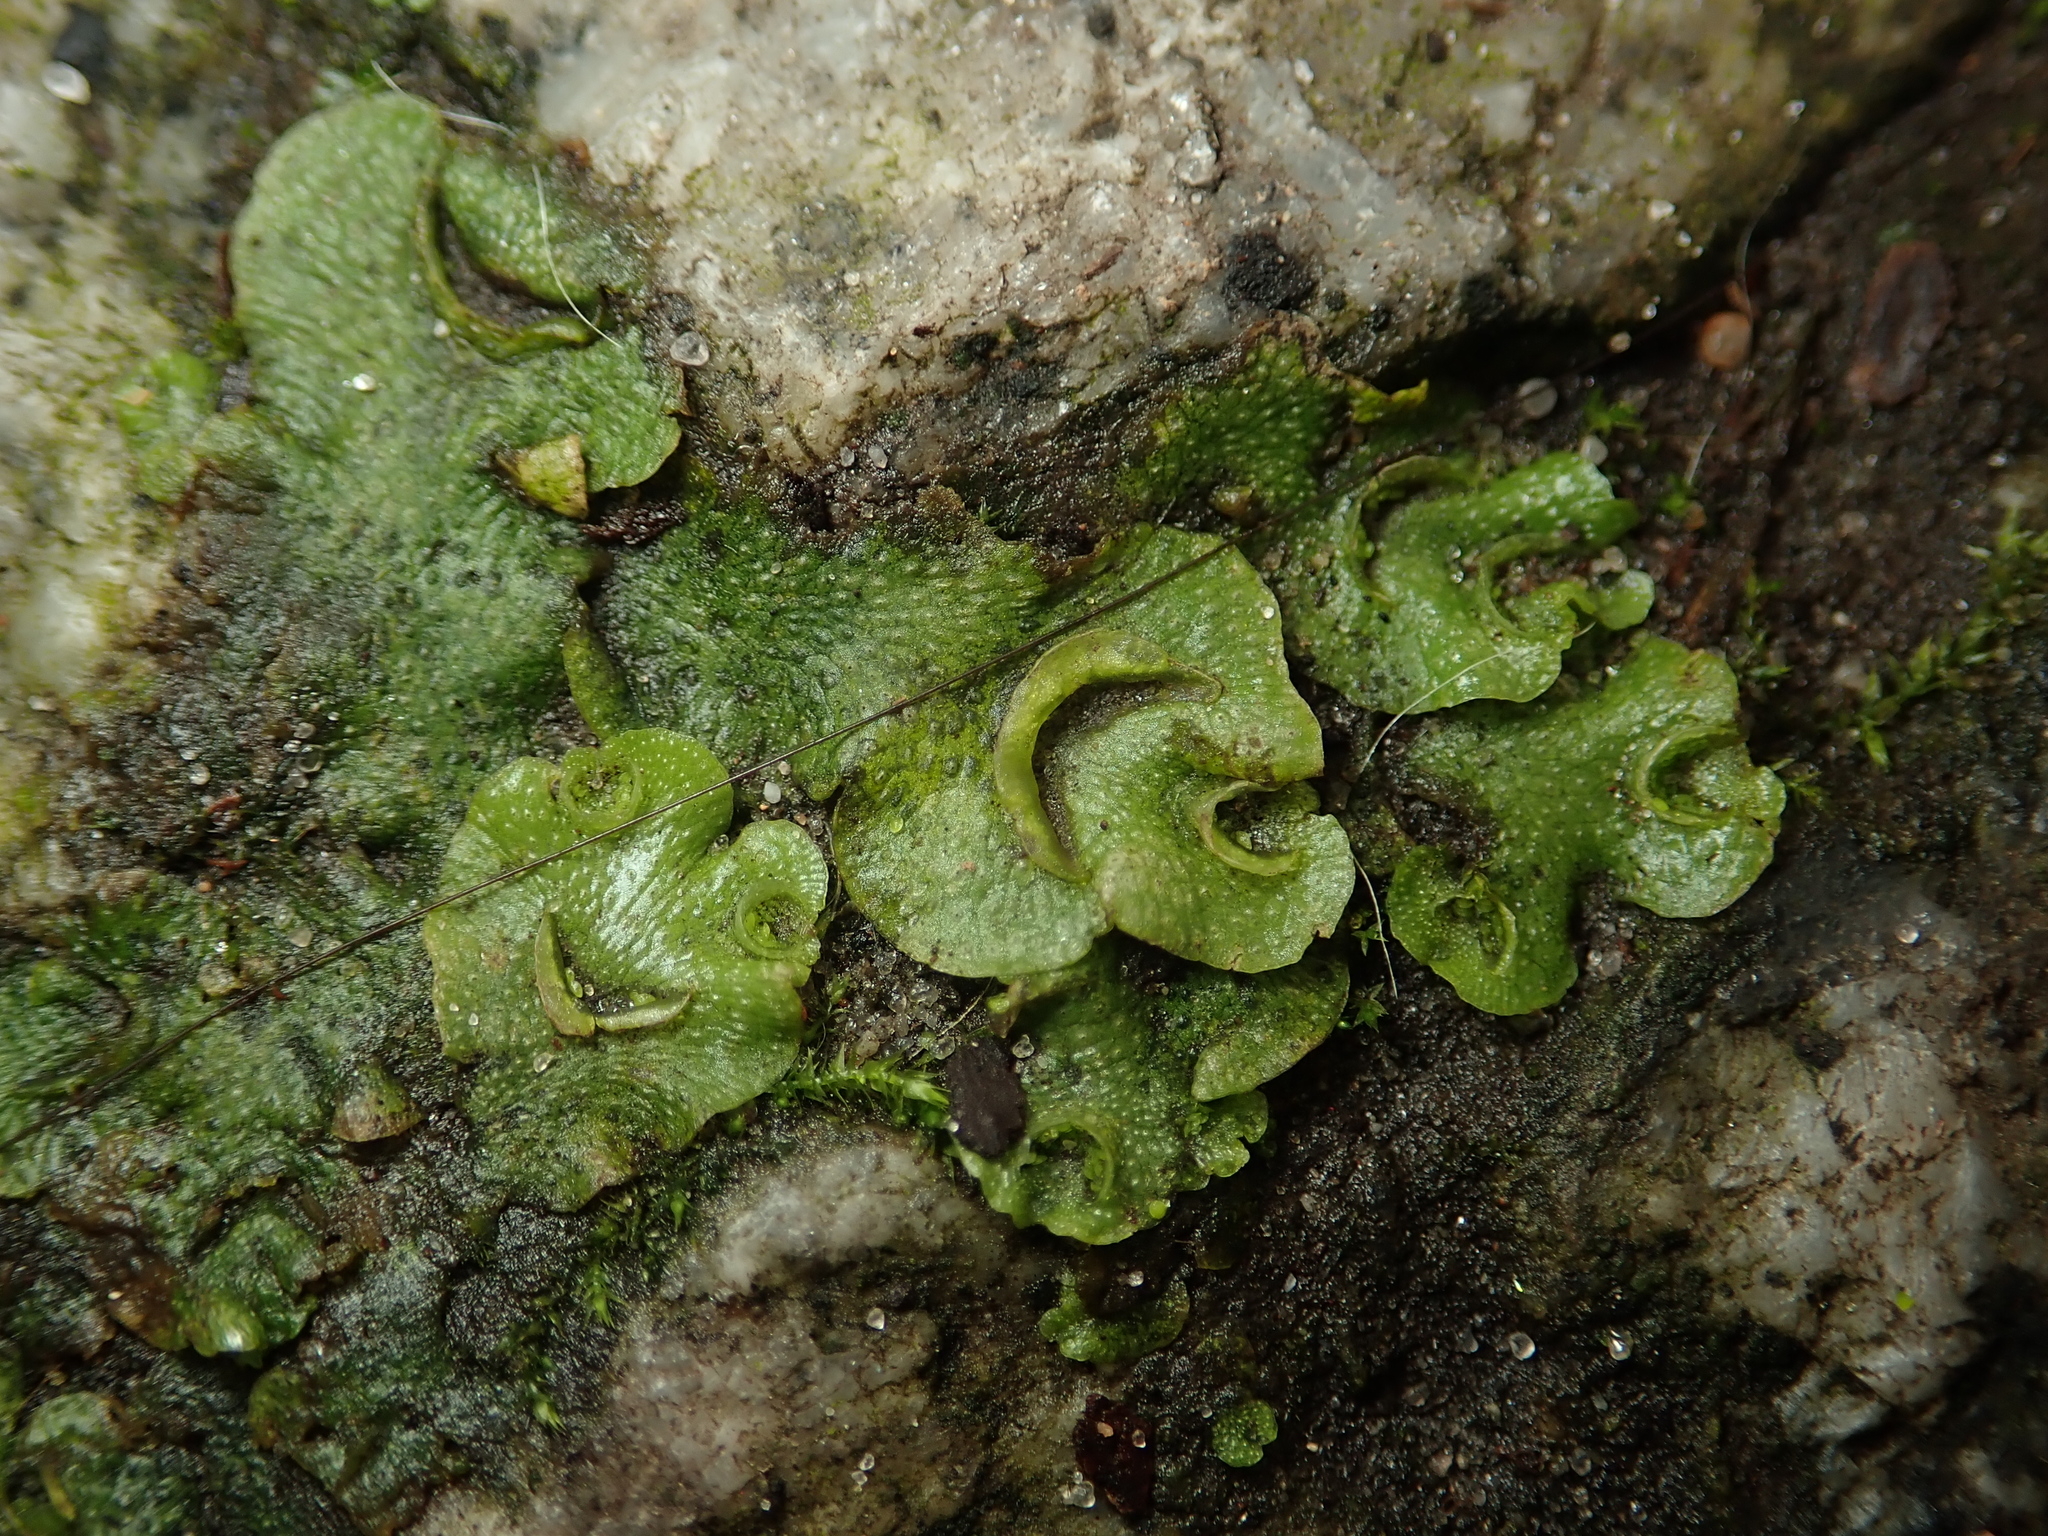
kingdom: Plantae
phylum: Marchantiophyta
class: Marchantiopsida
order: Lunulariales
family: Lunulariaceae
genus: Lunularia
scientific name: Lunularia cruciata
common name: Crescent-cup liverwort
